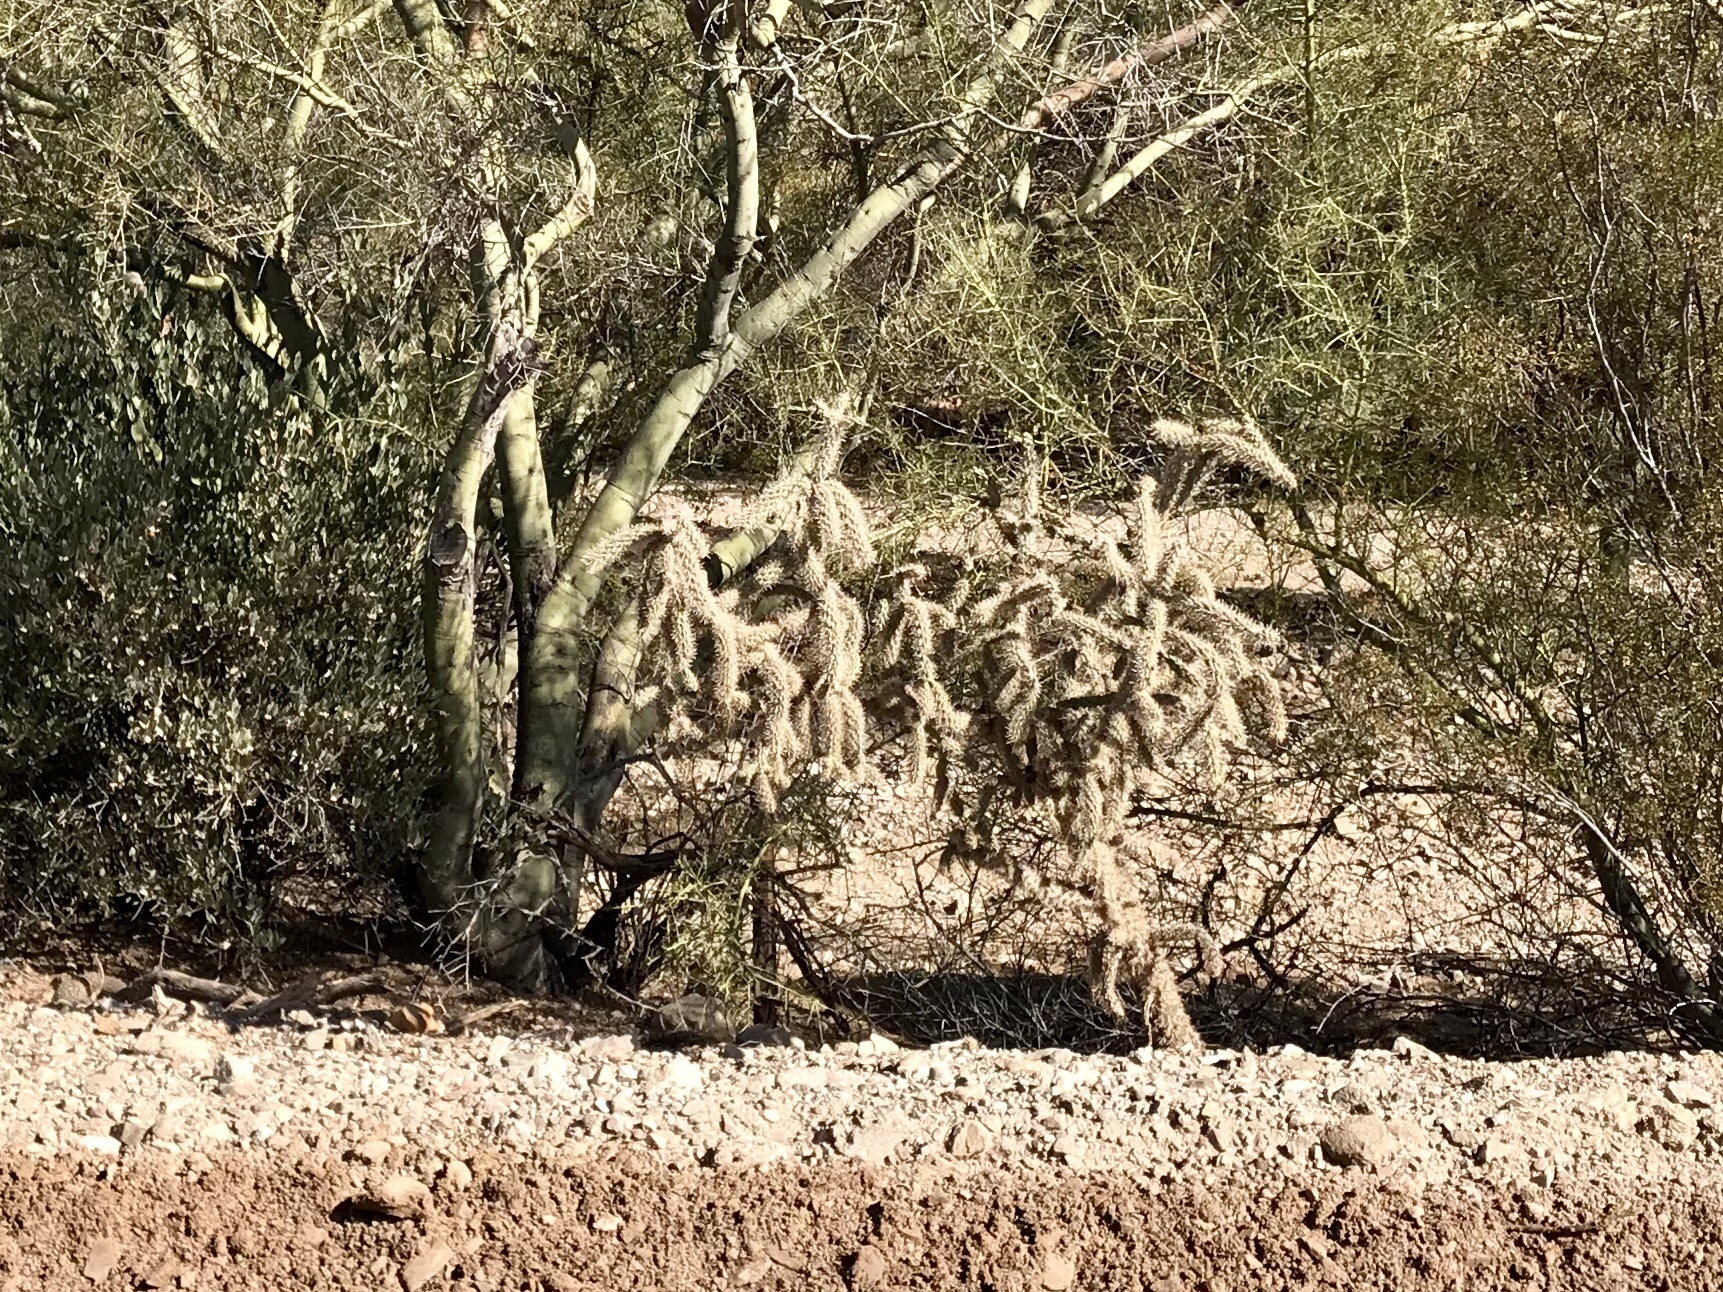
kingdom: Plantae
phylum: Tracheophyta
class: Magnoliopsida
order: Caryophyllales
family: Cactaceae
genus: Cylindropuntia
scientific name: Cylindropuntia imbricata
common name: Candelabrum cactus
